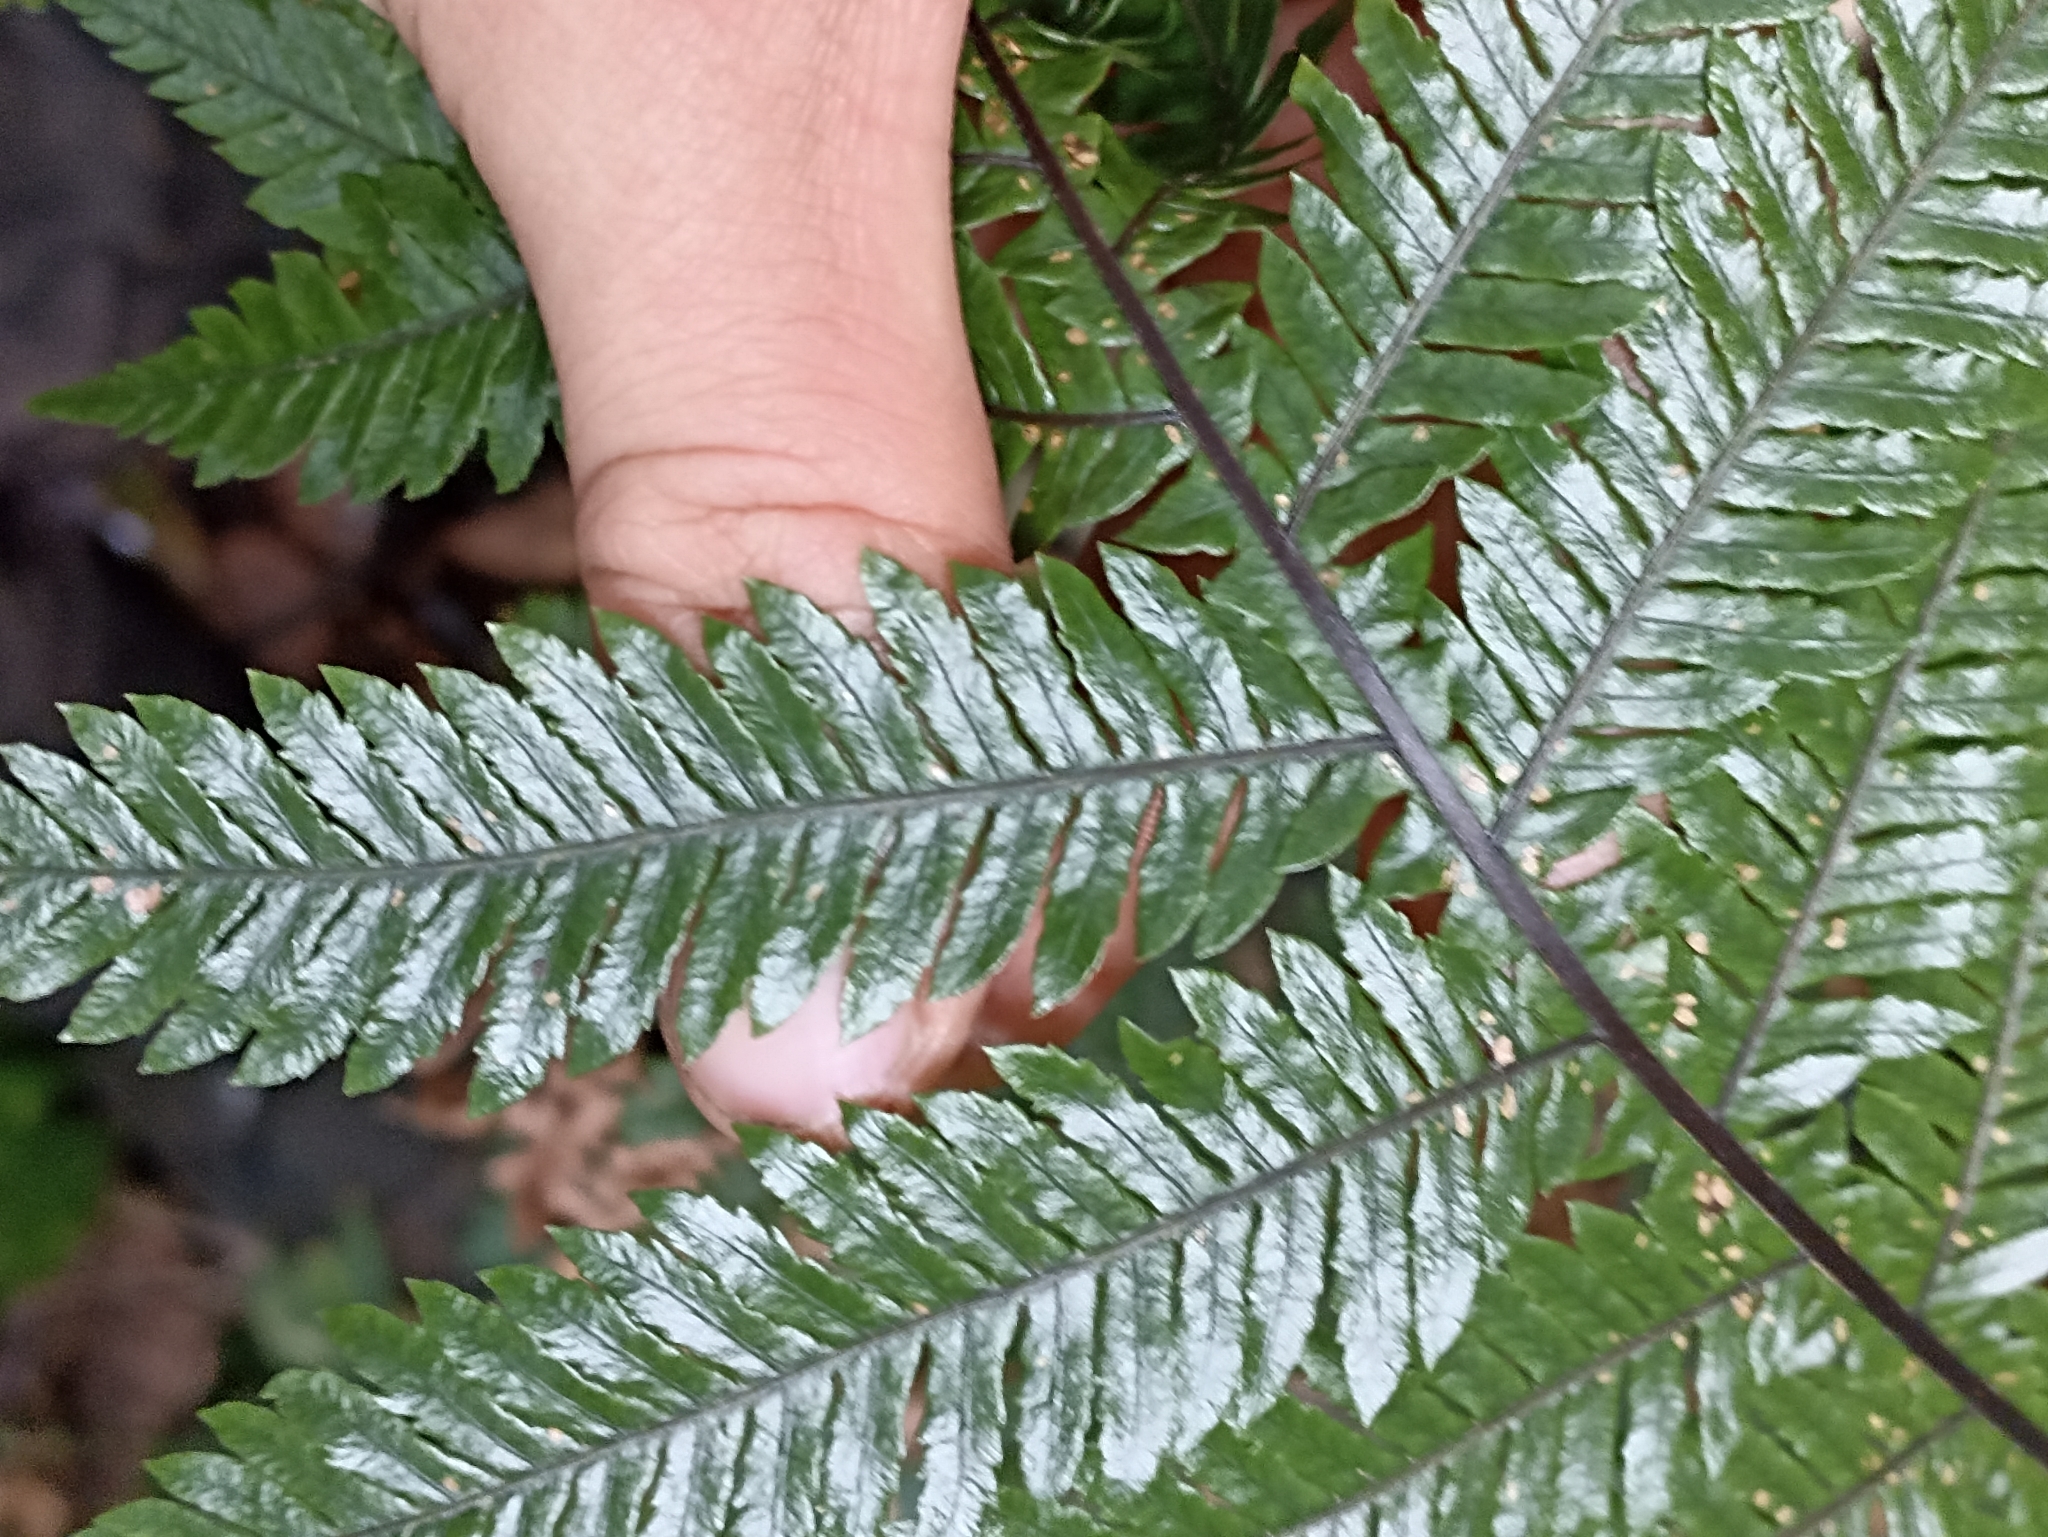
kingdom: Plantae
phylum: Tracheophyta
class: Polypodiopsida
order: Polypodiales
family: Blechnaceae
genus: Diploblechnum
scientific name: Diploblechnum fraseri
